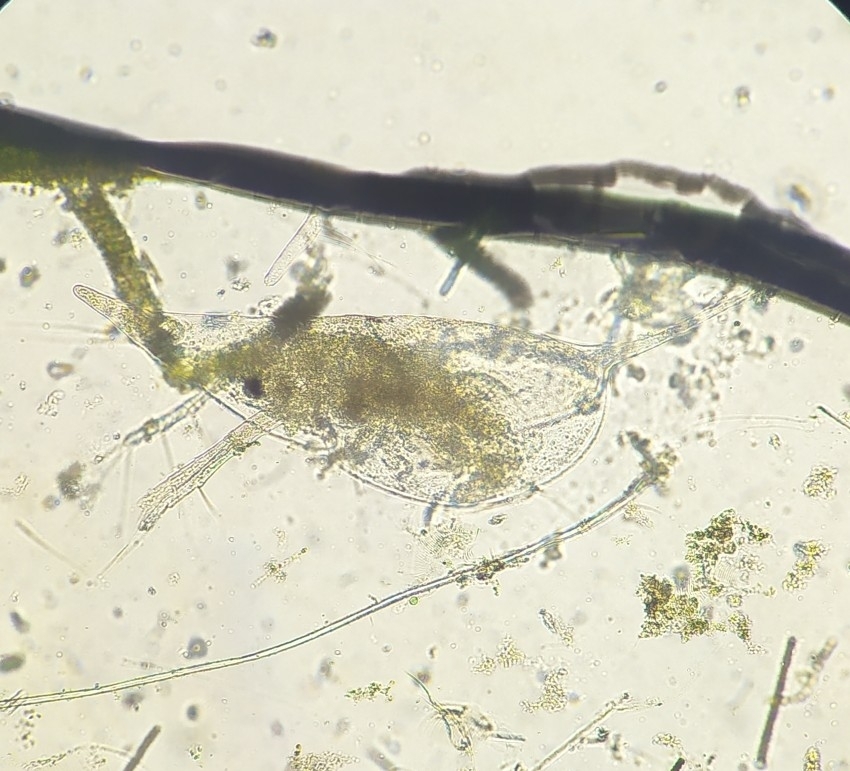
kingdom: Animalia
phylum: Arthropoda
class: Branchiopoda
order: Diplostraca
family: Daphniidae
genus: Daphnia
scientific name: Daphnia cucullata
